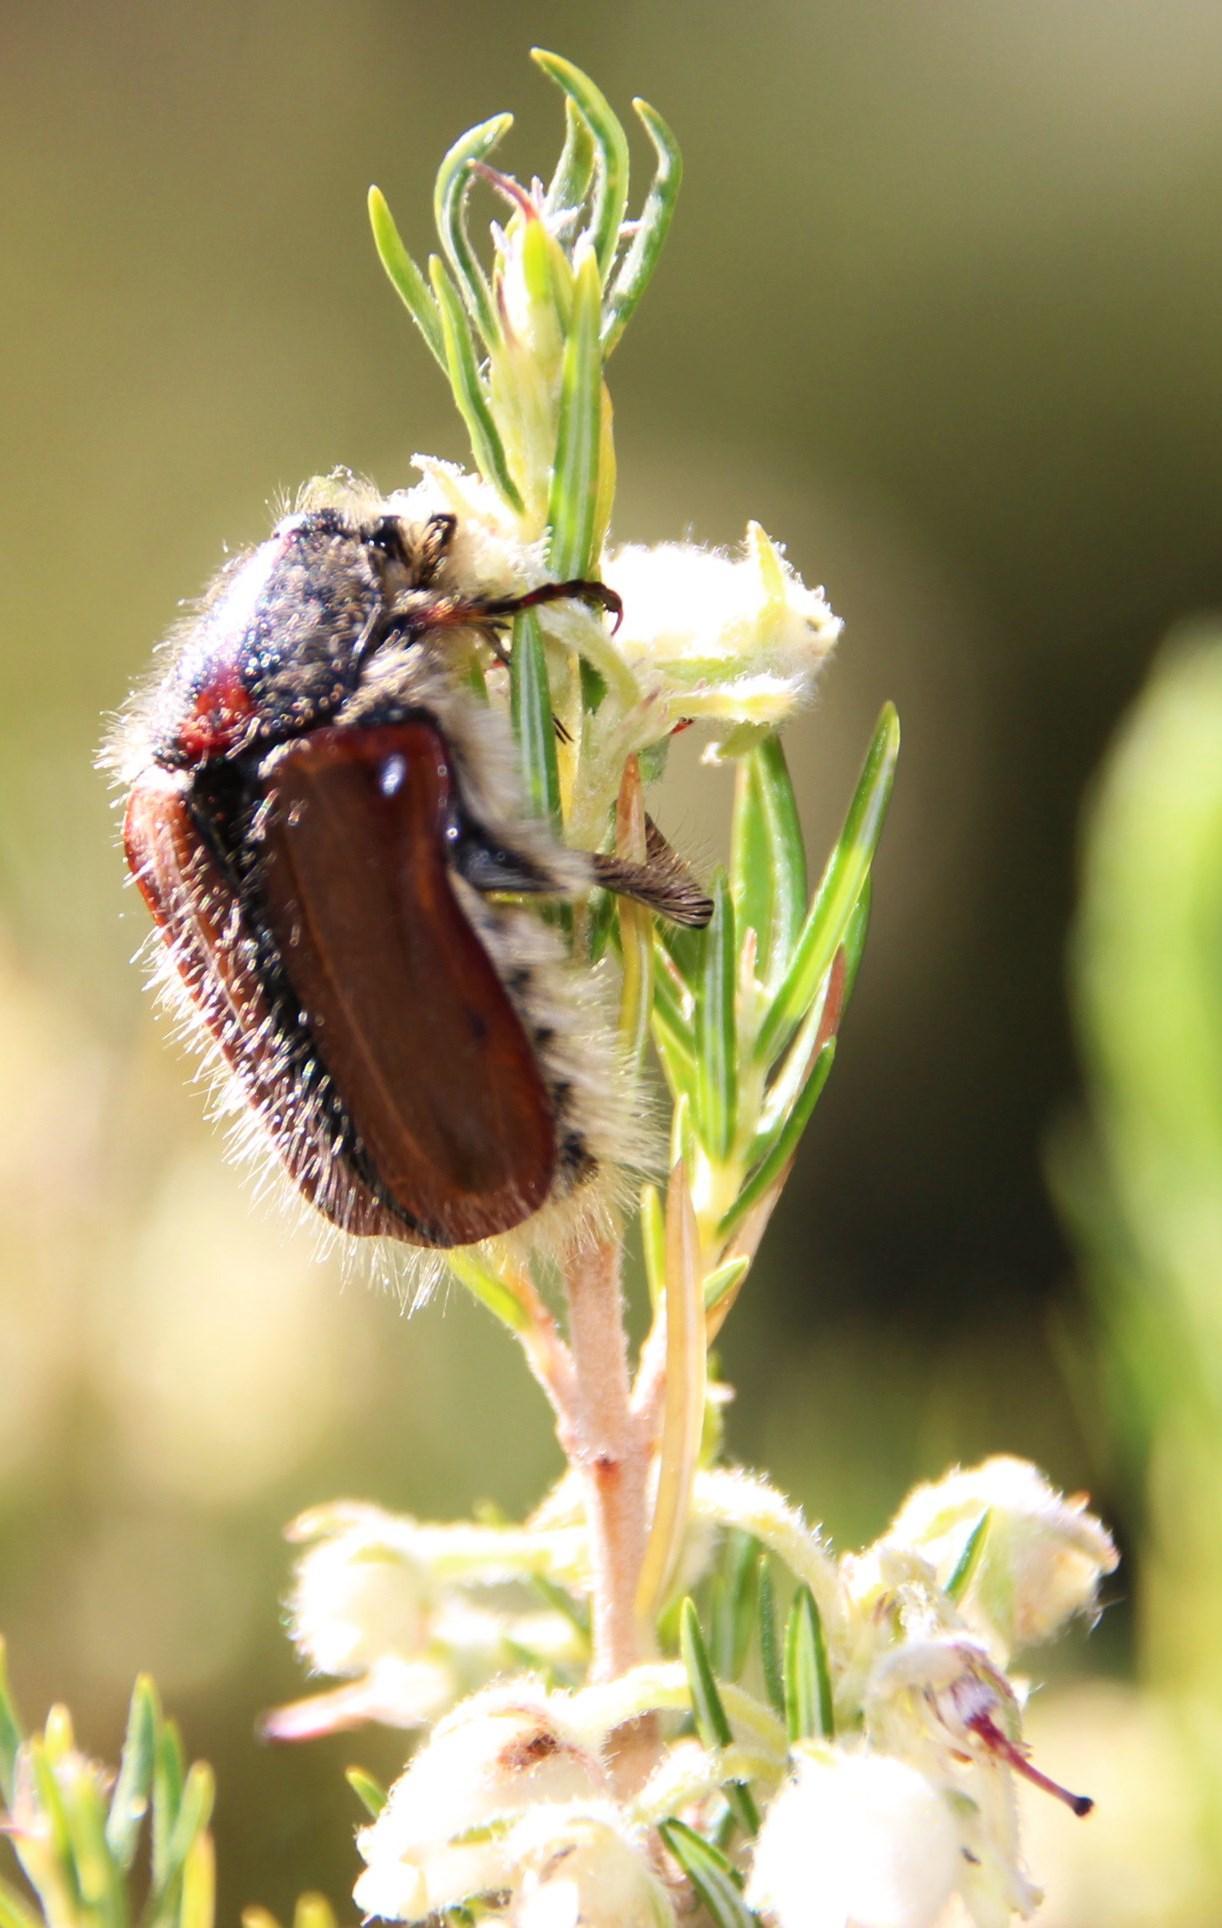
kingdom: Animalia
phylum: Arthropoda
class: Insecta
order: Coleoptera
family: Scarabaeidae
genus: Trichostetha
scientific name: Trichostetha capensis
